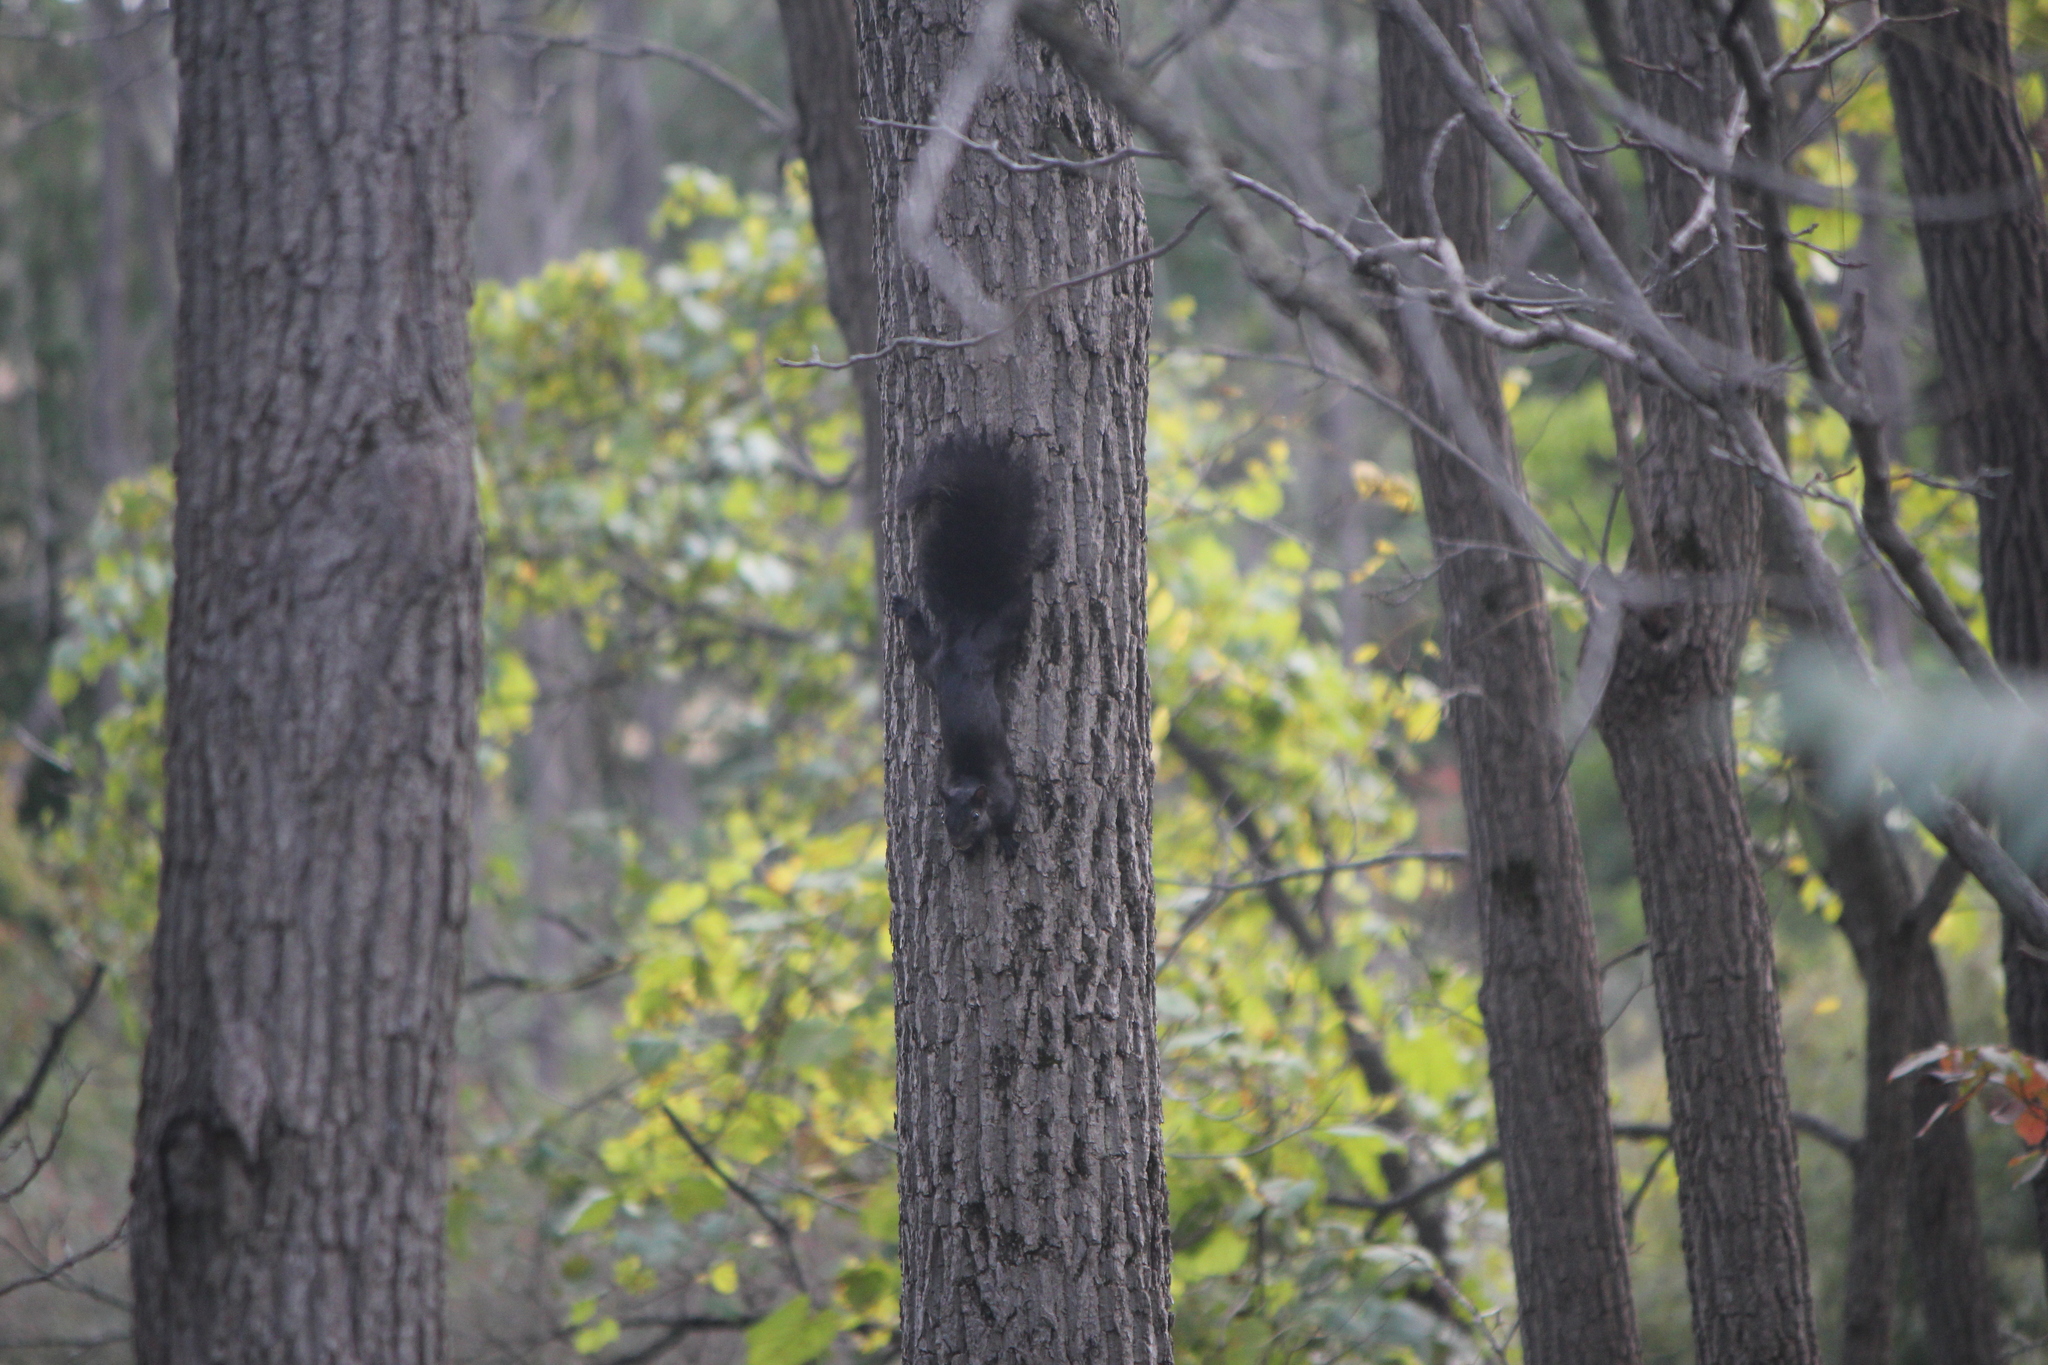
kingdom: Animalia
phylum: Chordata
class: Mammalia
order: Rodentia
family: Sciuridae
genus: Sciurus
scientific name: Sciurus carolinensis
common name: Eastern gray squirrel
